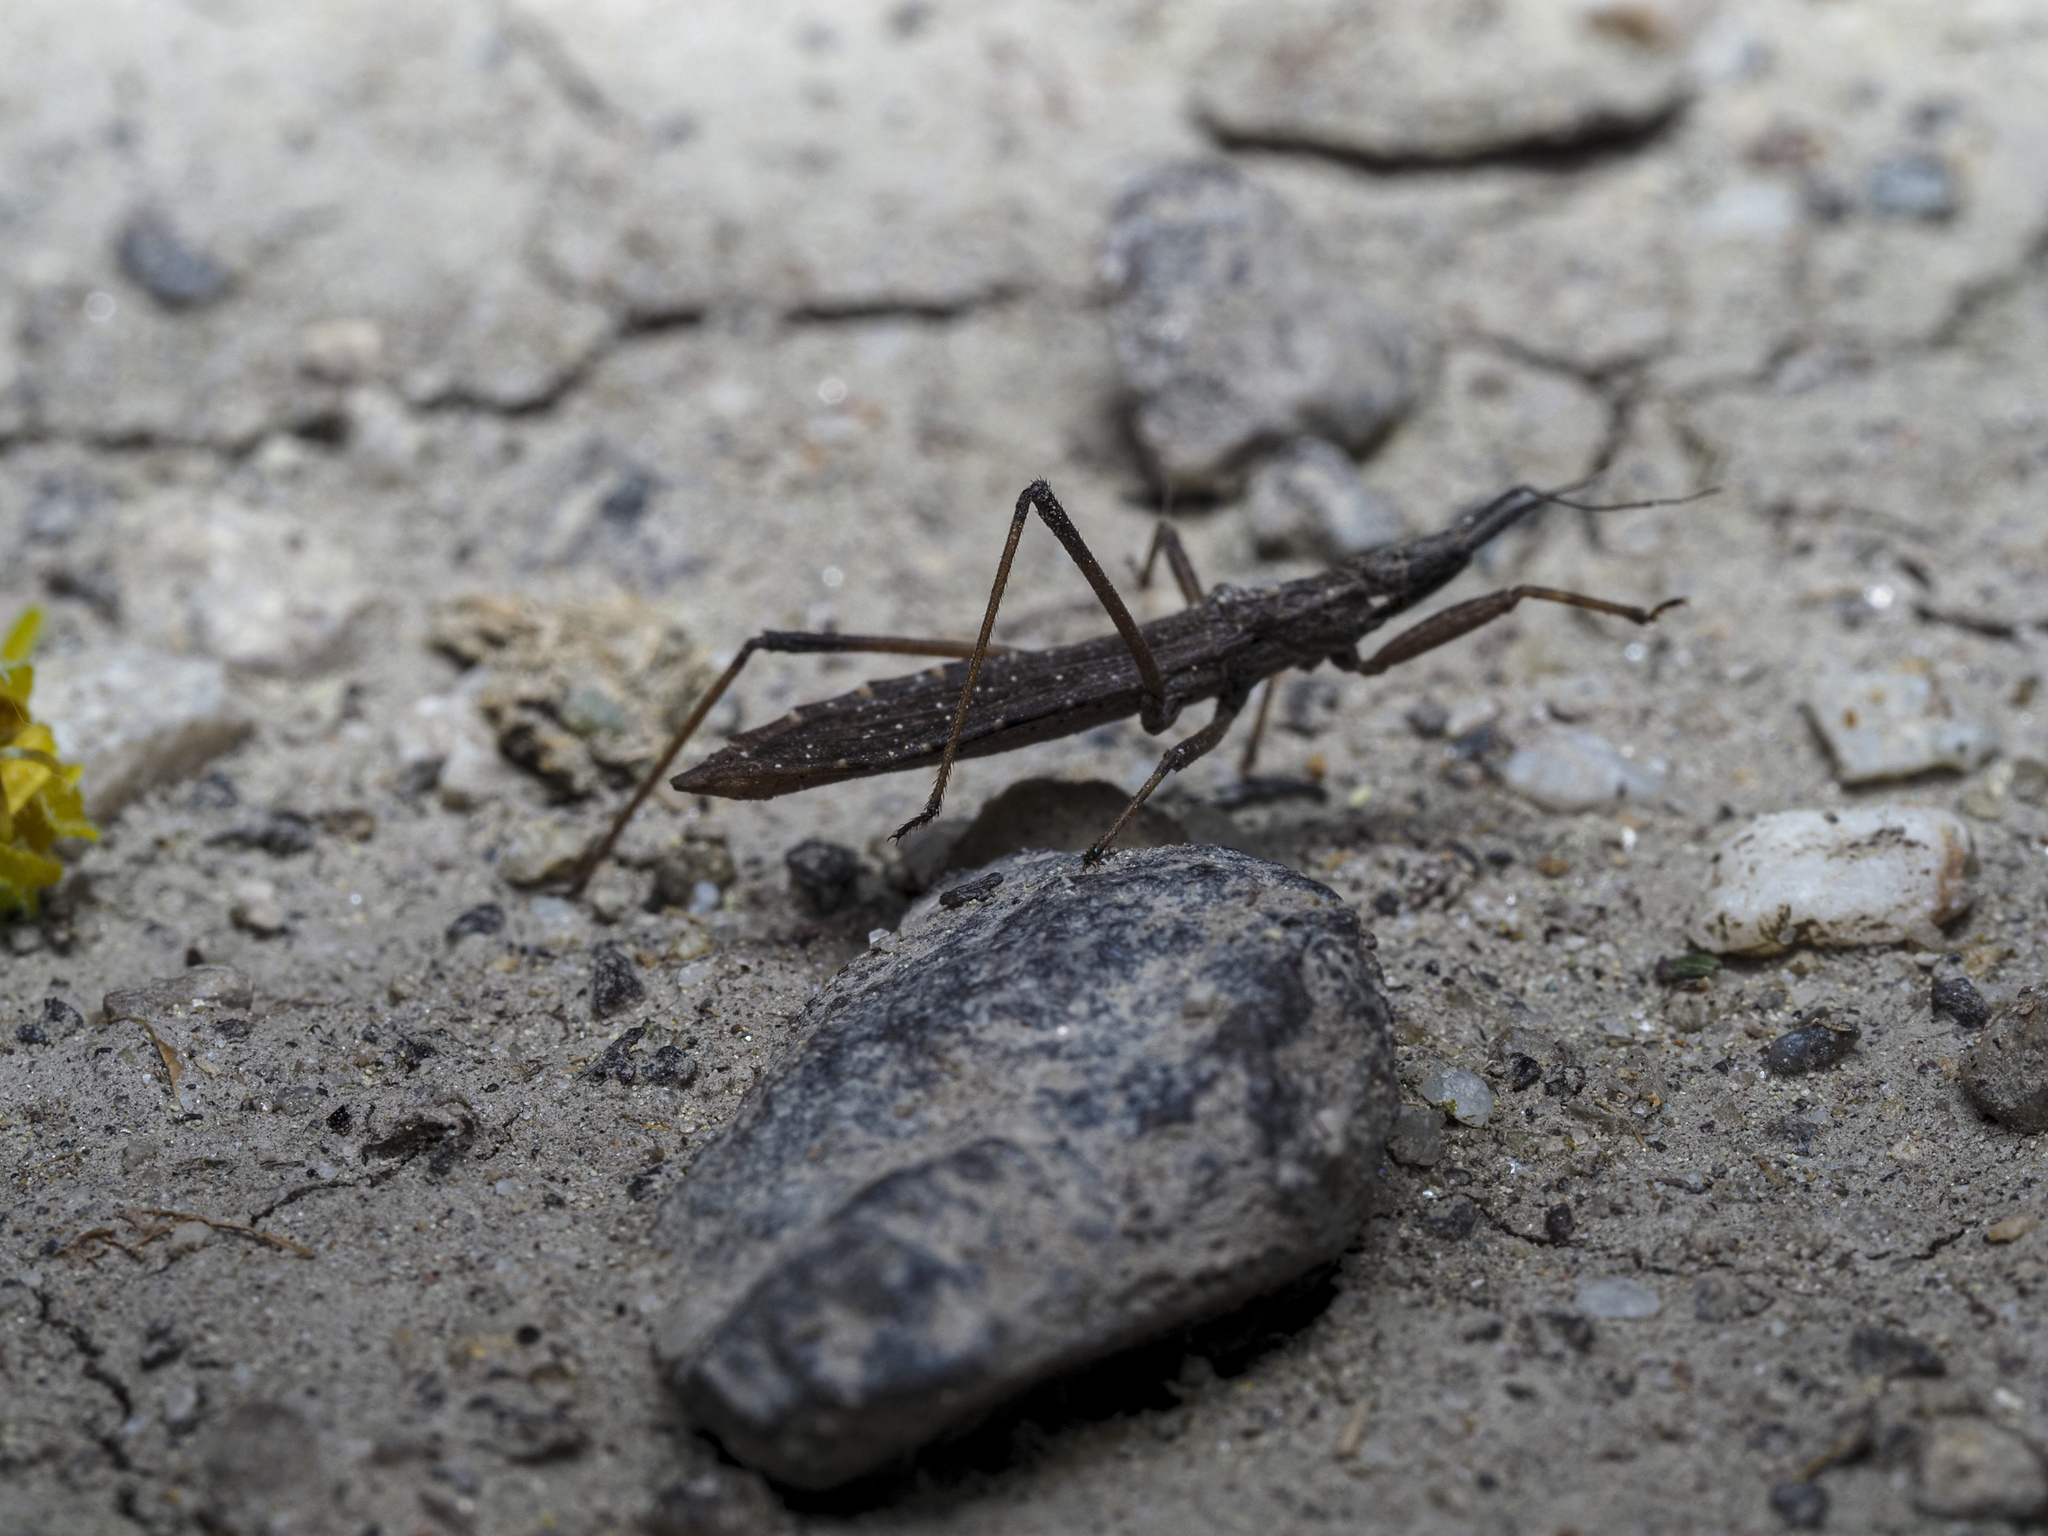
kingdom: Animalia
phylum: Arthropoda
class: Insecta
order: Hemiptera
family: Reduviidae
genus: Pygolampis
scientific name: Pygolampis bidentata
